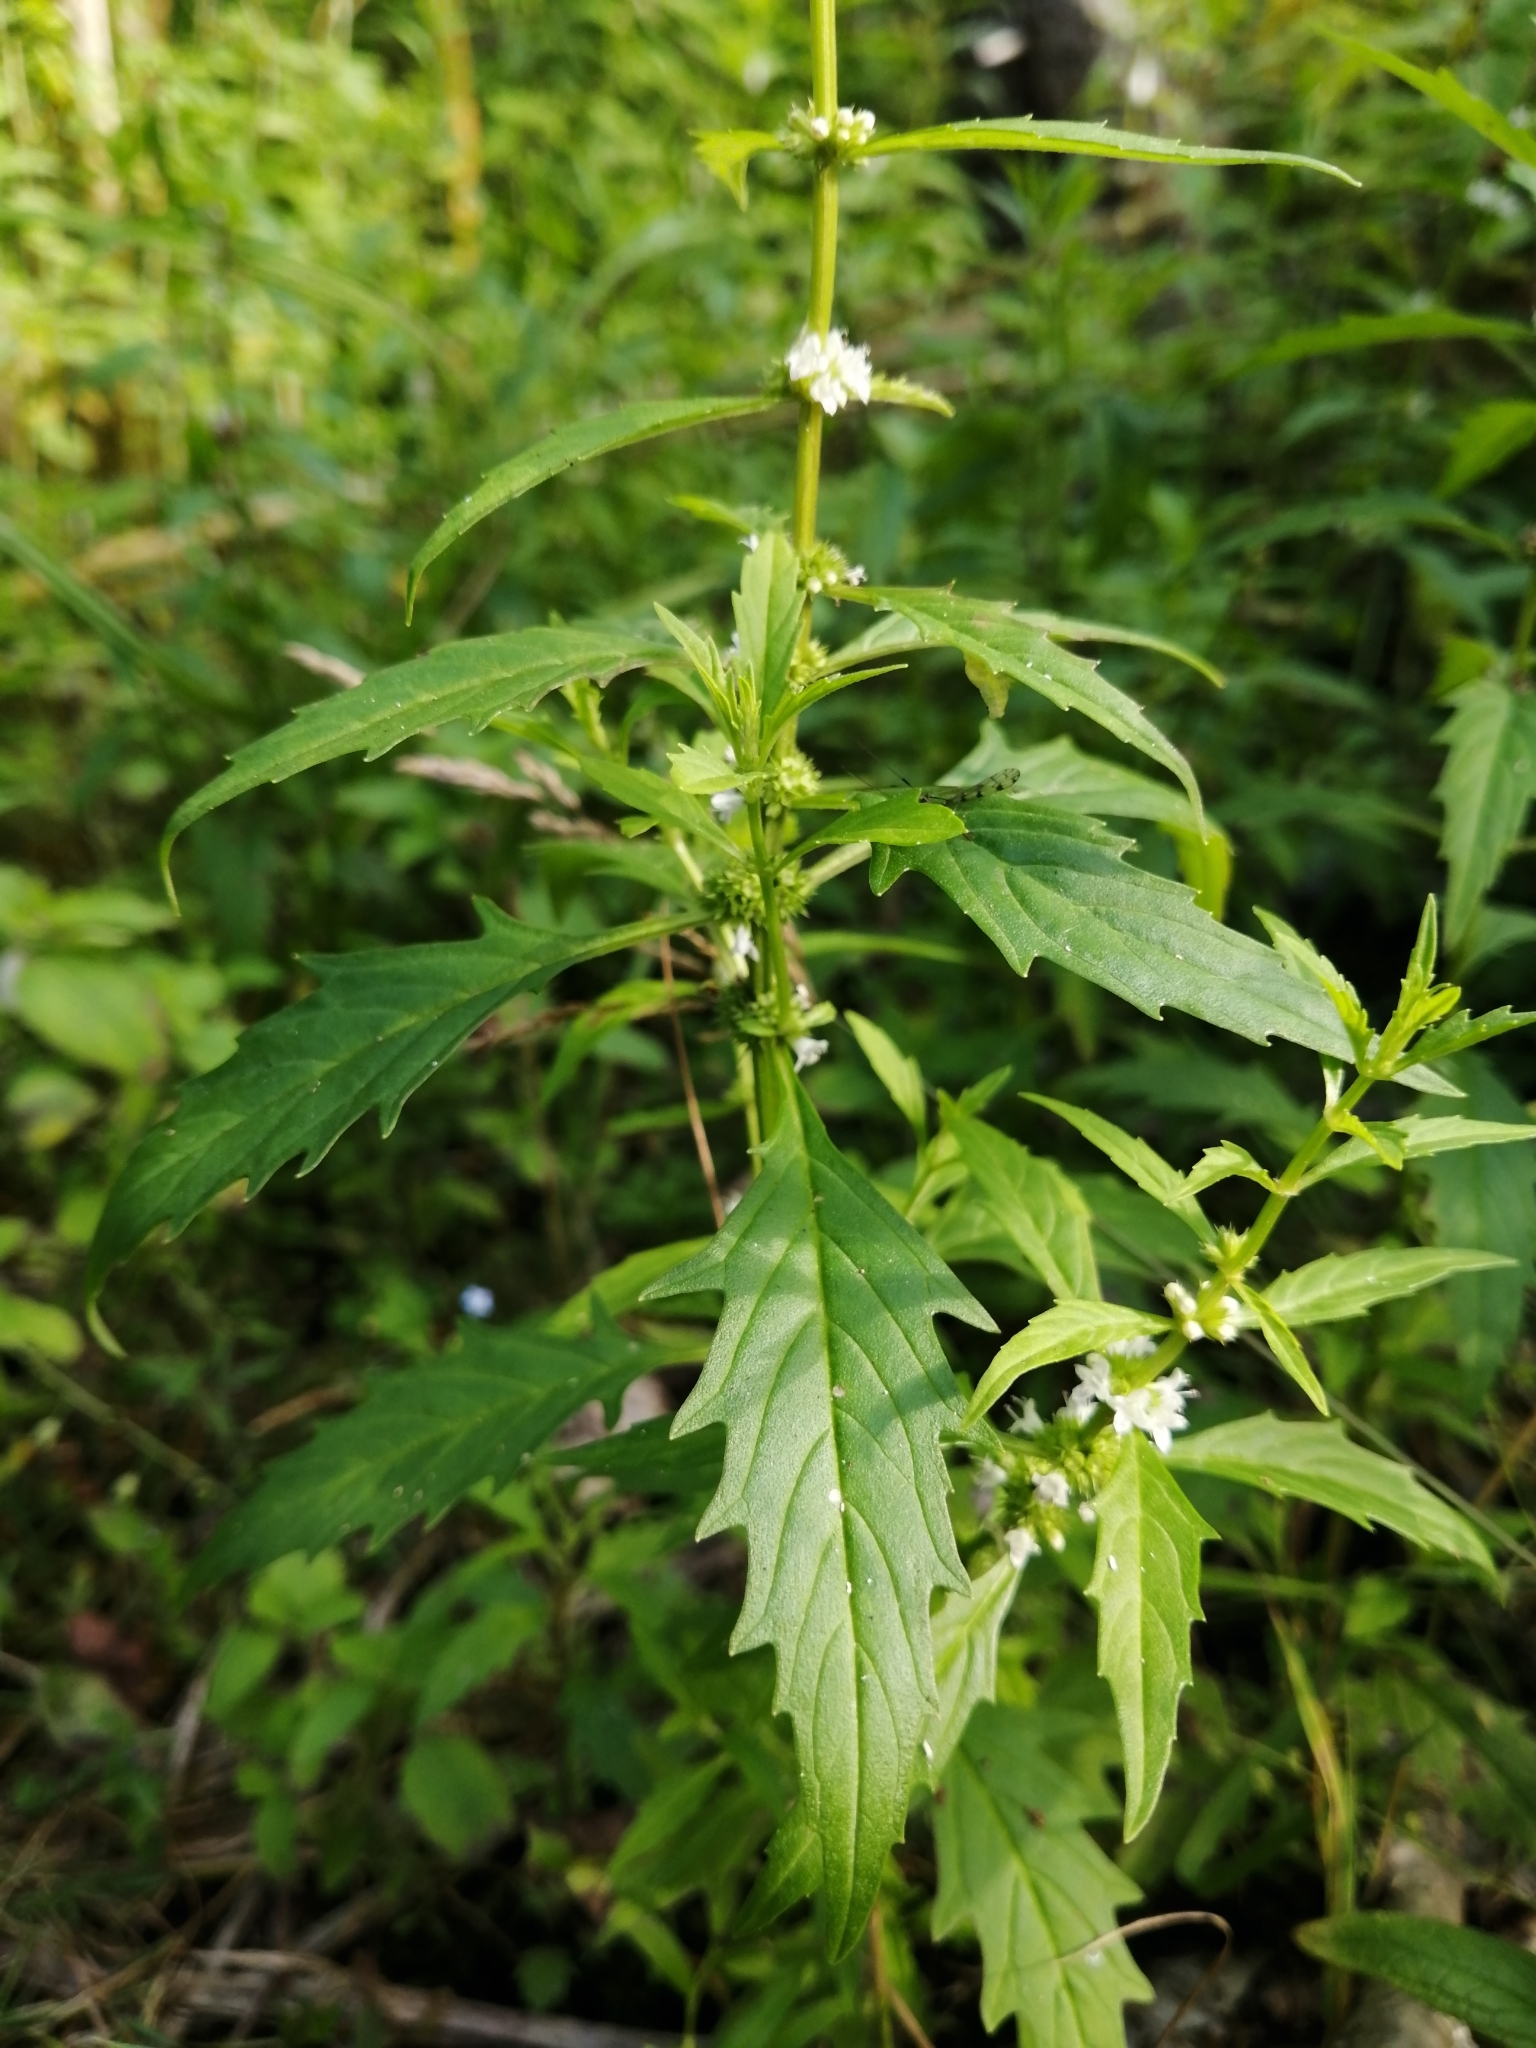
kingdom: Plantae
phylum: Tracheophyta
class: Magnoliopsida
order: Lamiales
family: Lamiaceae
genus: Lycopus
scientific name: Lycopus americanus
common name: American bugleweed
